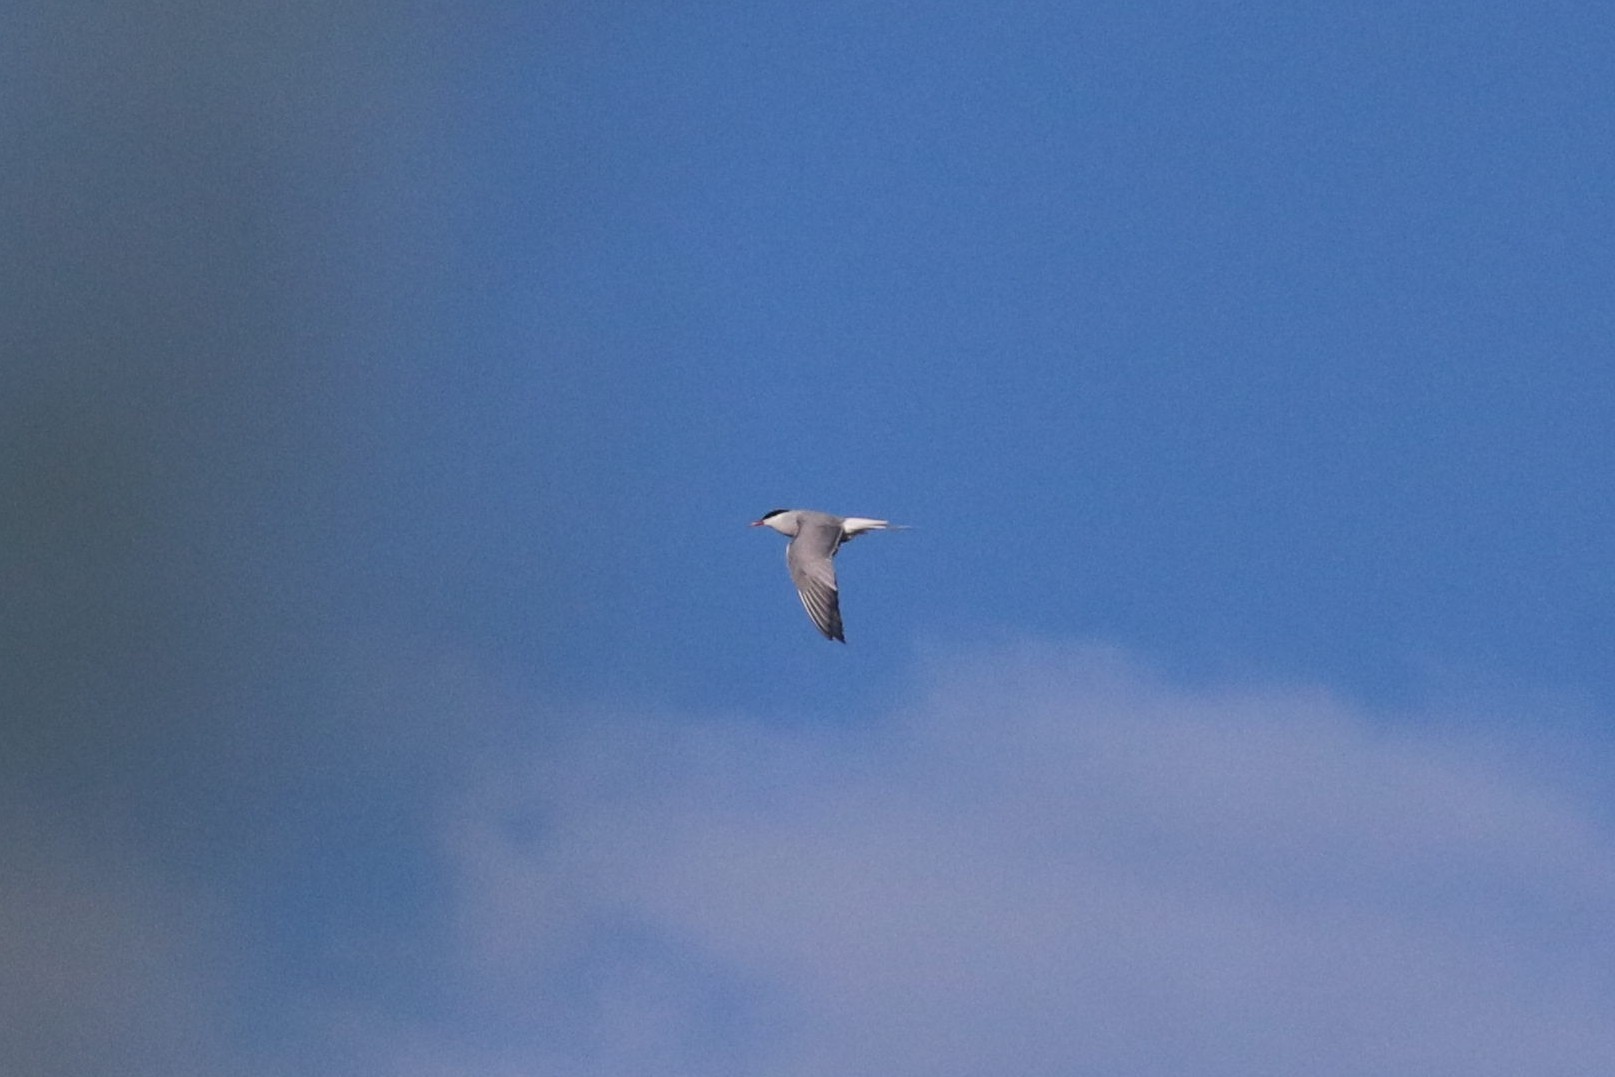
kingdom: Animalia
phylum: Chordata
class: Aves
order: Charadriiformes
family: Laridae
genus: Sterna
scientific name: Sterna hirundo
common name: Common tern
